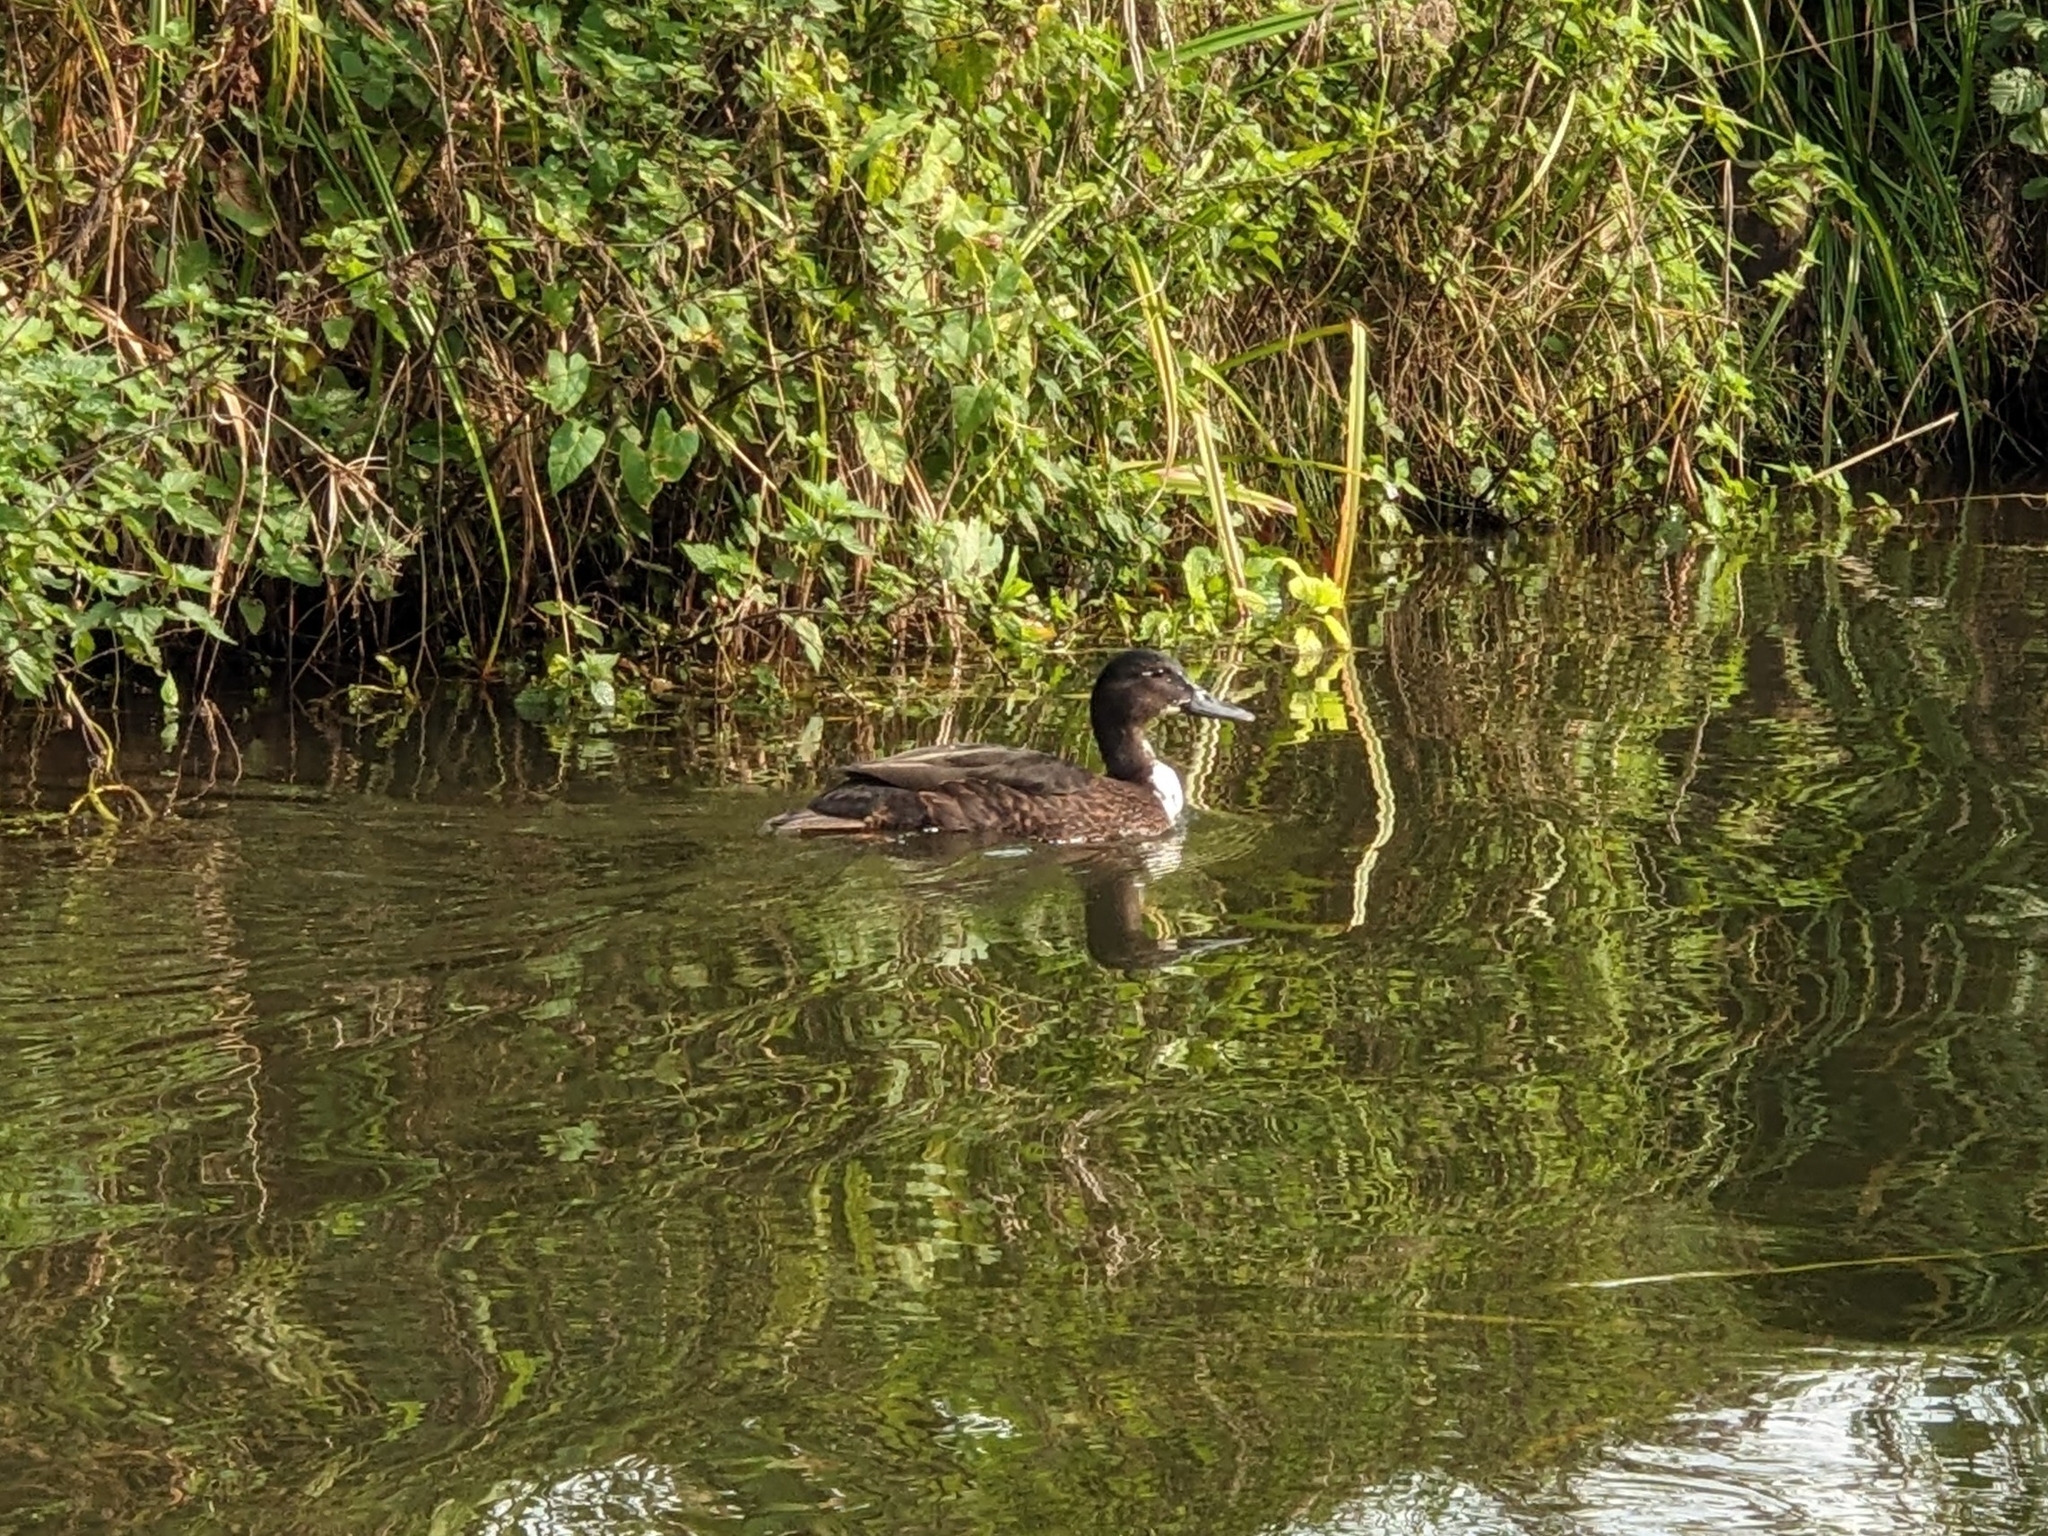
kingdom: Animalia
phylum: Chordata
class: Aves
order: Anseriformes
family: Anatidae
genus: Anas
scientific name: Anas platyrhynchos
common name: Mallard
